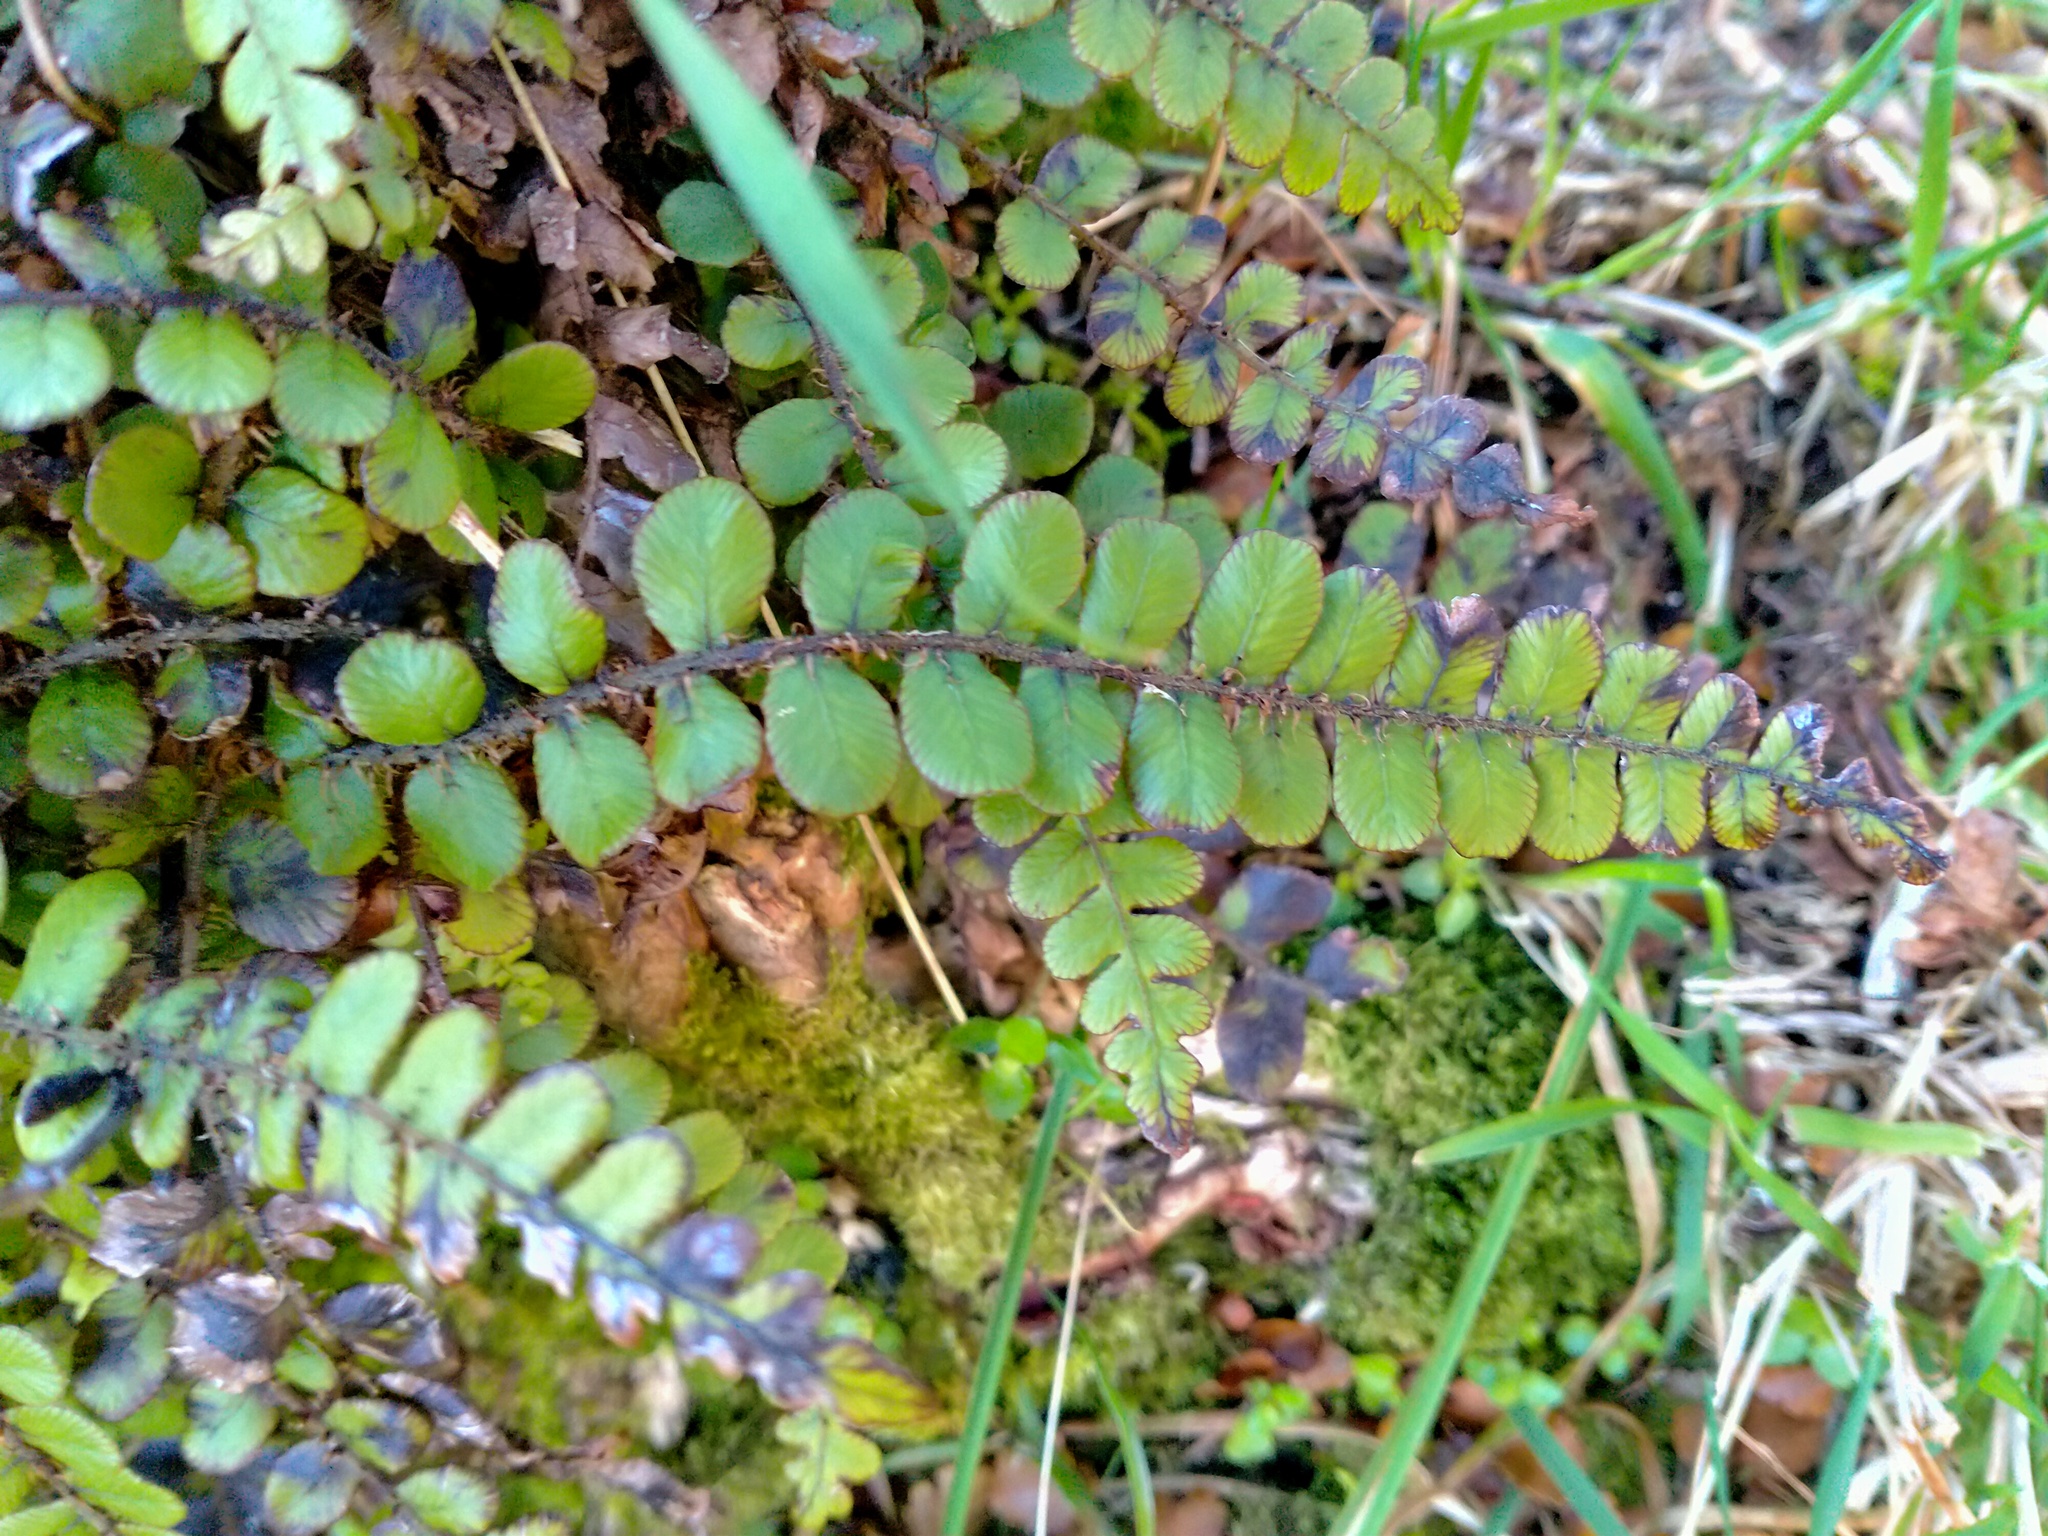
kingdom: Plantae
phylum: Tracheophyta
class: Polypodiopsida
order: Polypodiales
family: Blechnaceae
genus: Cranfillia
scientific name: Cranfillia fluviatilis
